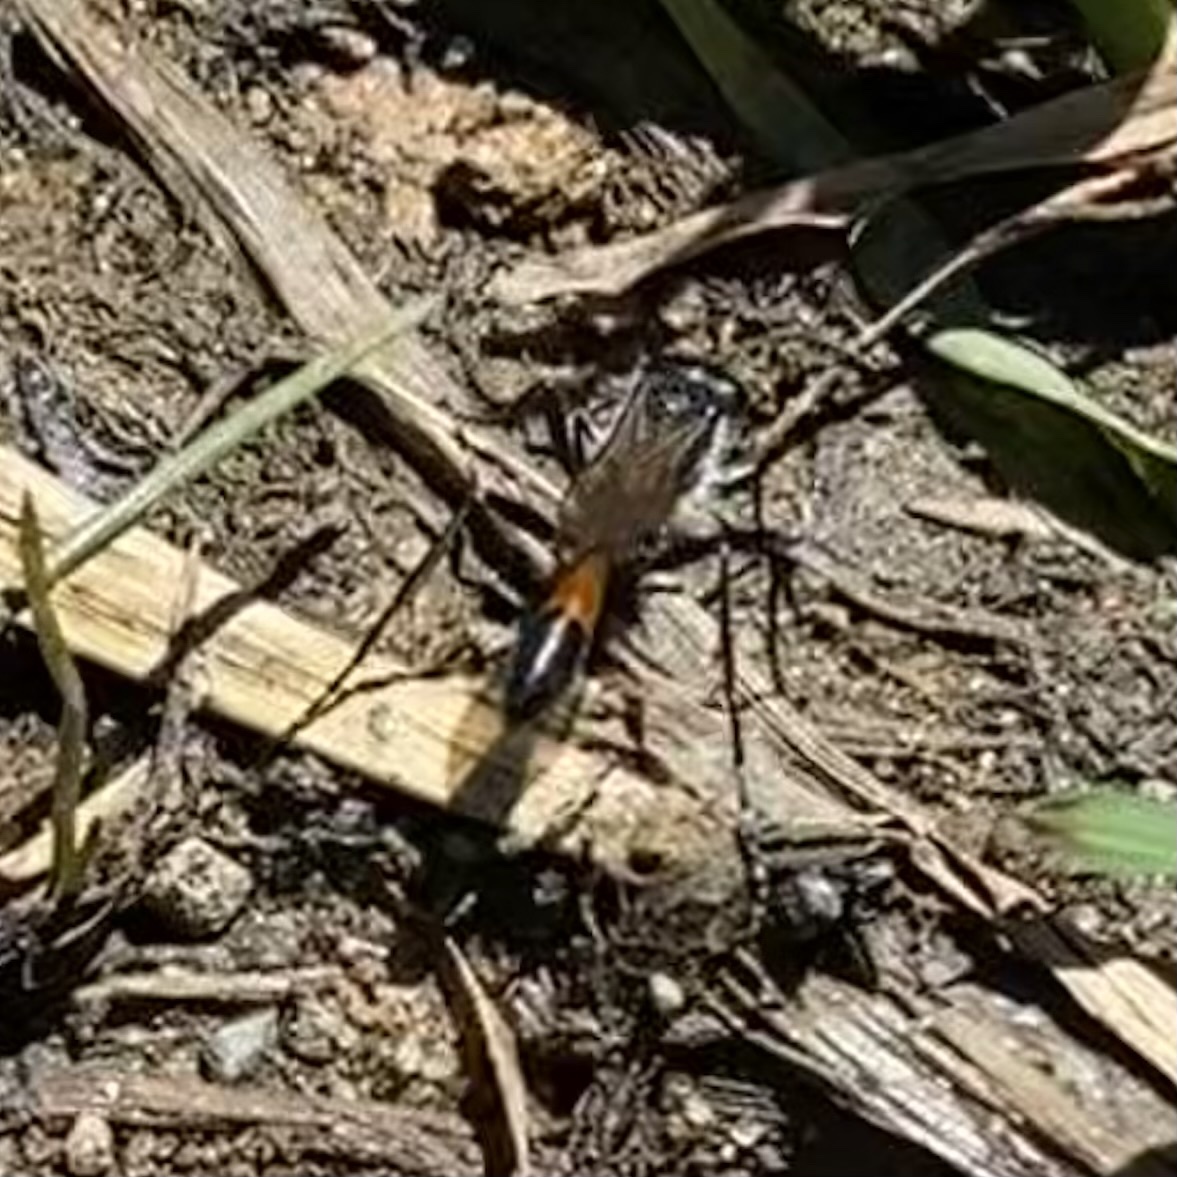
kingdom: Animalia
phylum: Arthropoda
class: Insecta
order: Hymenoptera
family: Sphecidae
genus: Ammophila
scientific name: Ammophila
